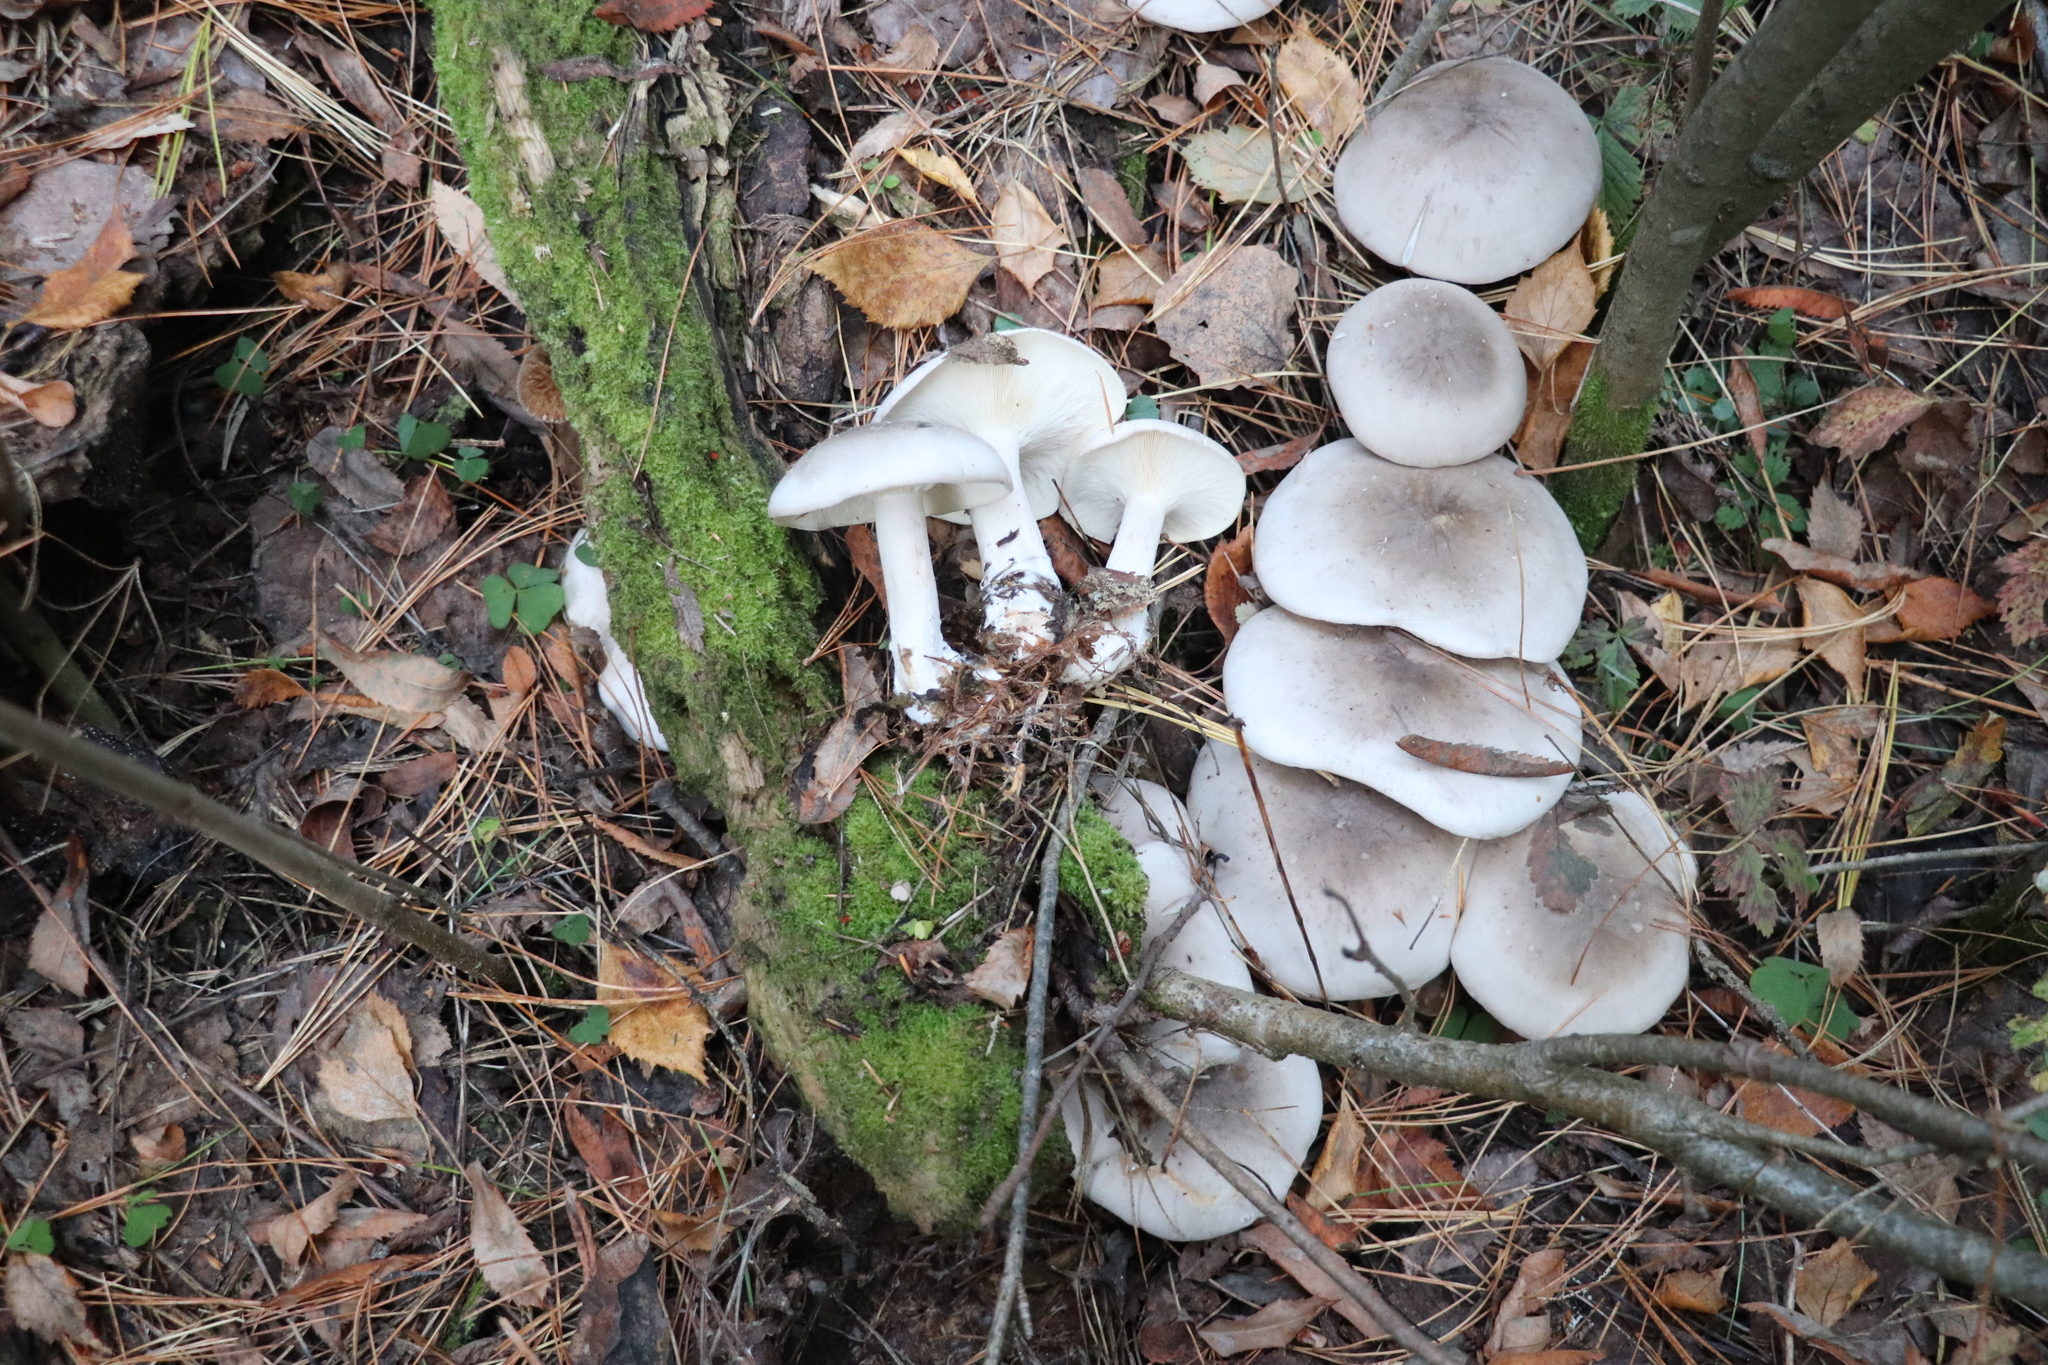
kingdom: Fungi
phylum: Basidiomycota
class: Agaricomycetes
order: Agaricales
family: Tricholomataceae
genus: Clitocybe
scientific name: Clitocybe nebularis
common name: Clouded agaric
